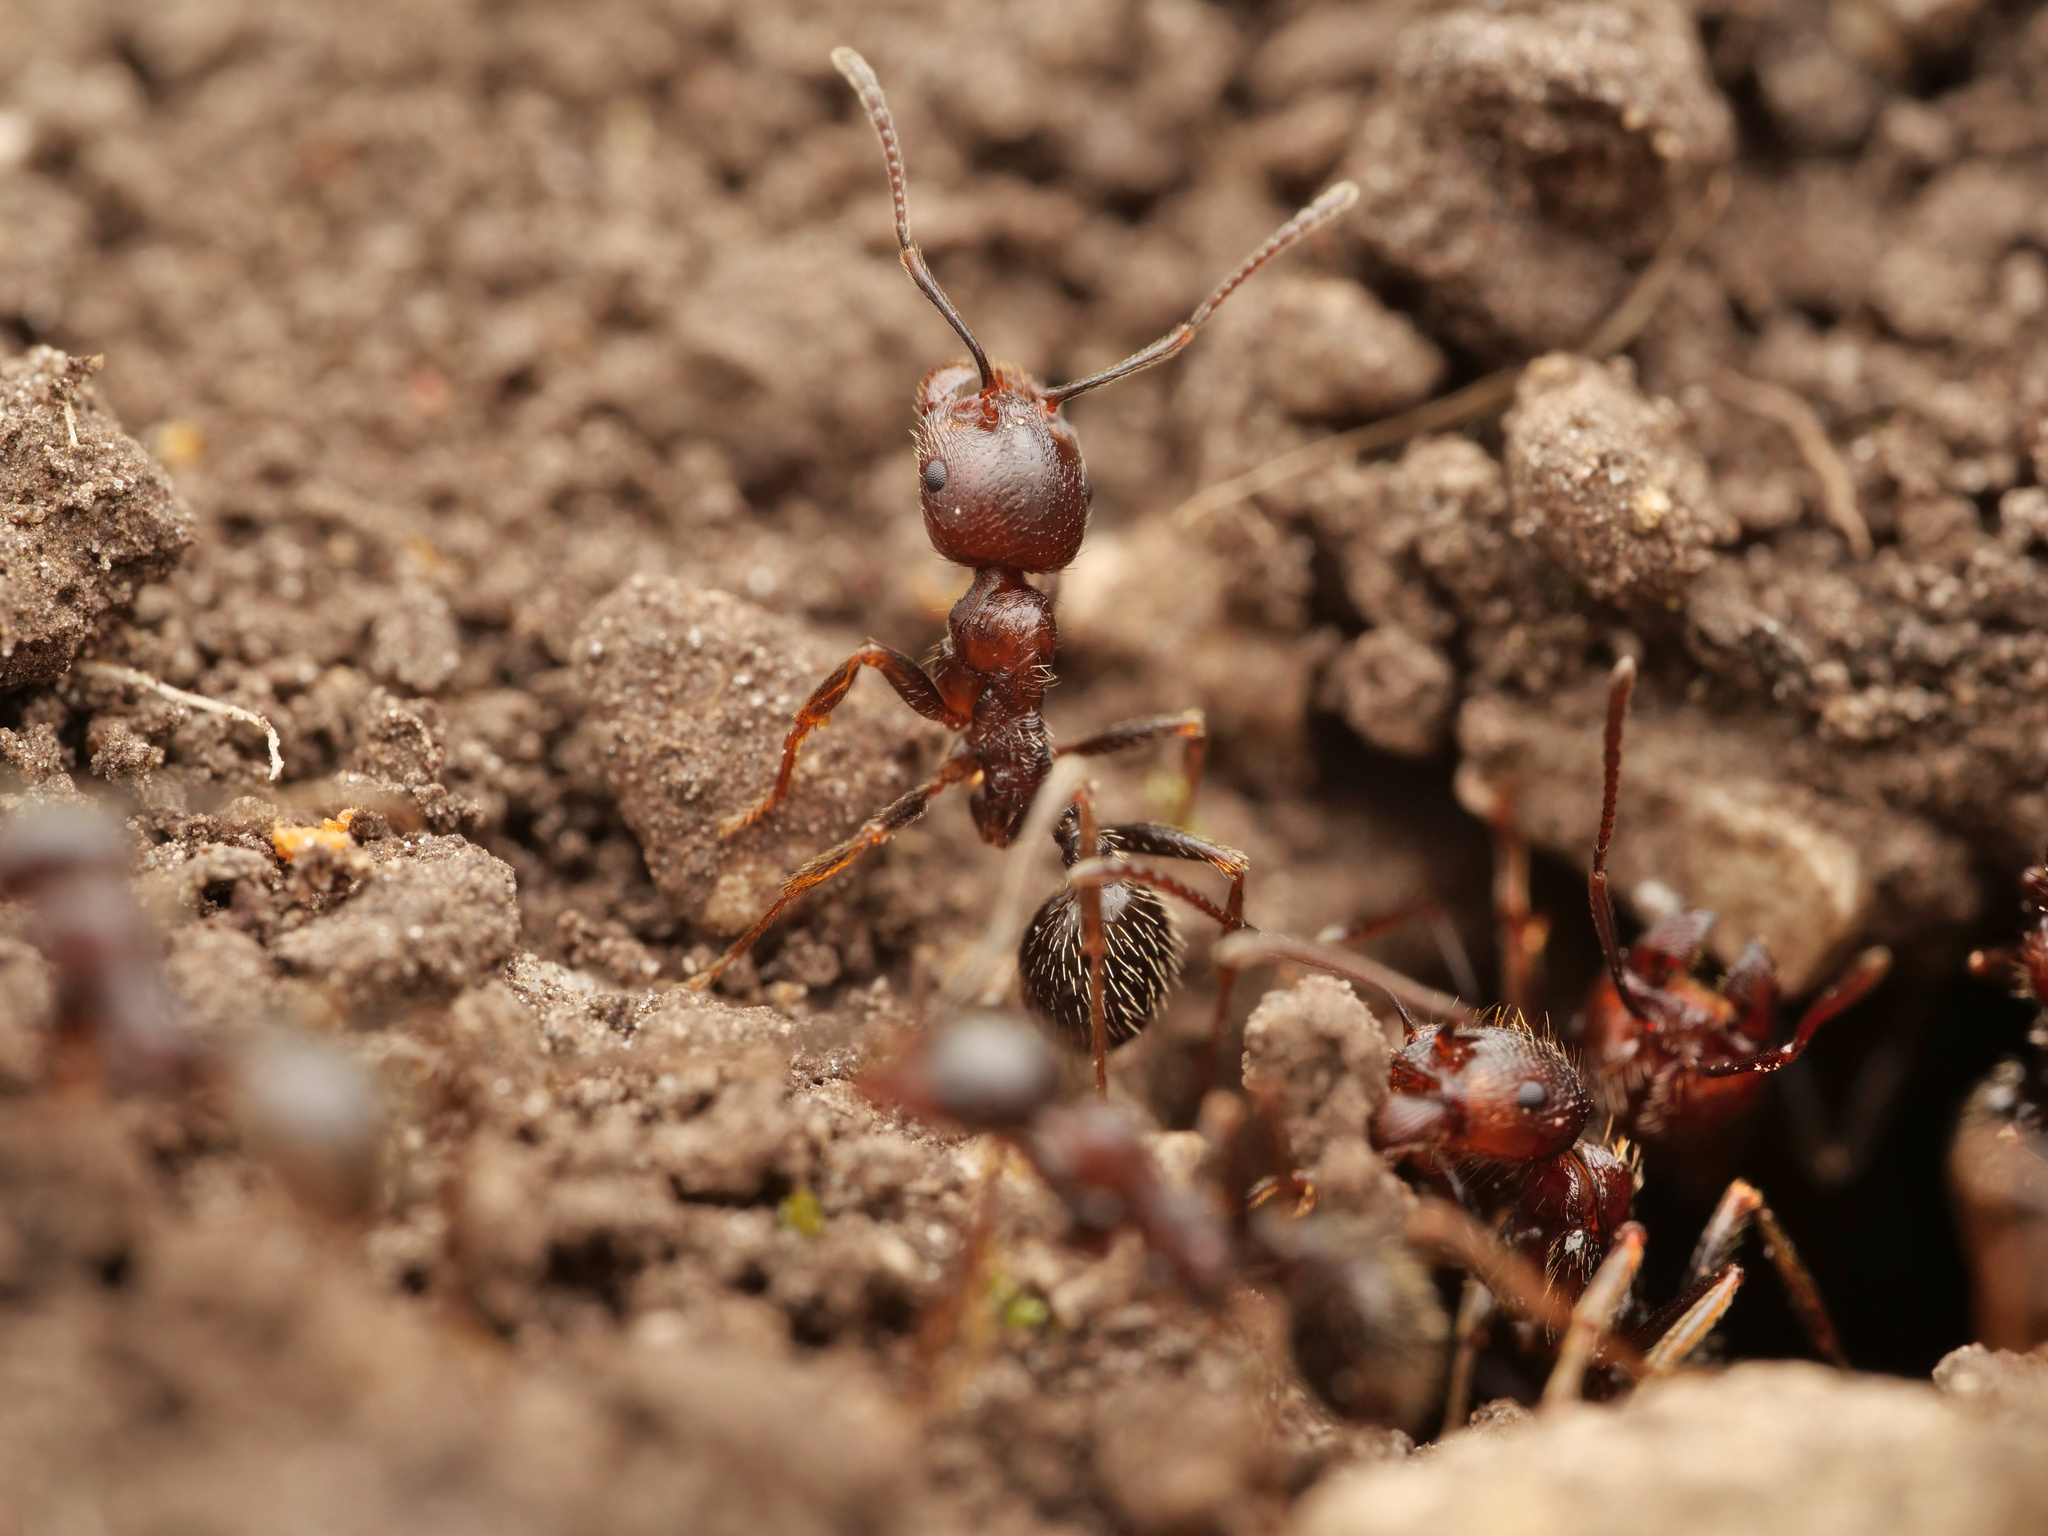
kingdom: Animalia
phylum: Arthropoda
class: Insecta
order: Hymenoptera
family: Formicidae
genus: Messor
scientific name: Messor structor
